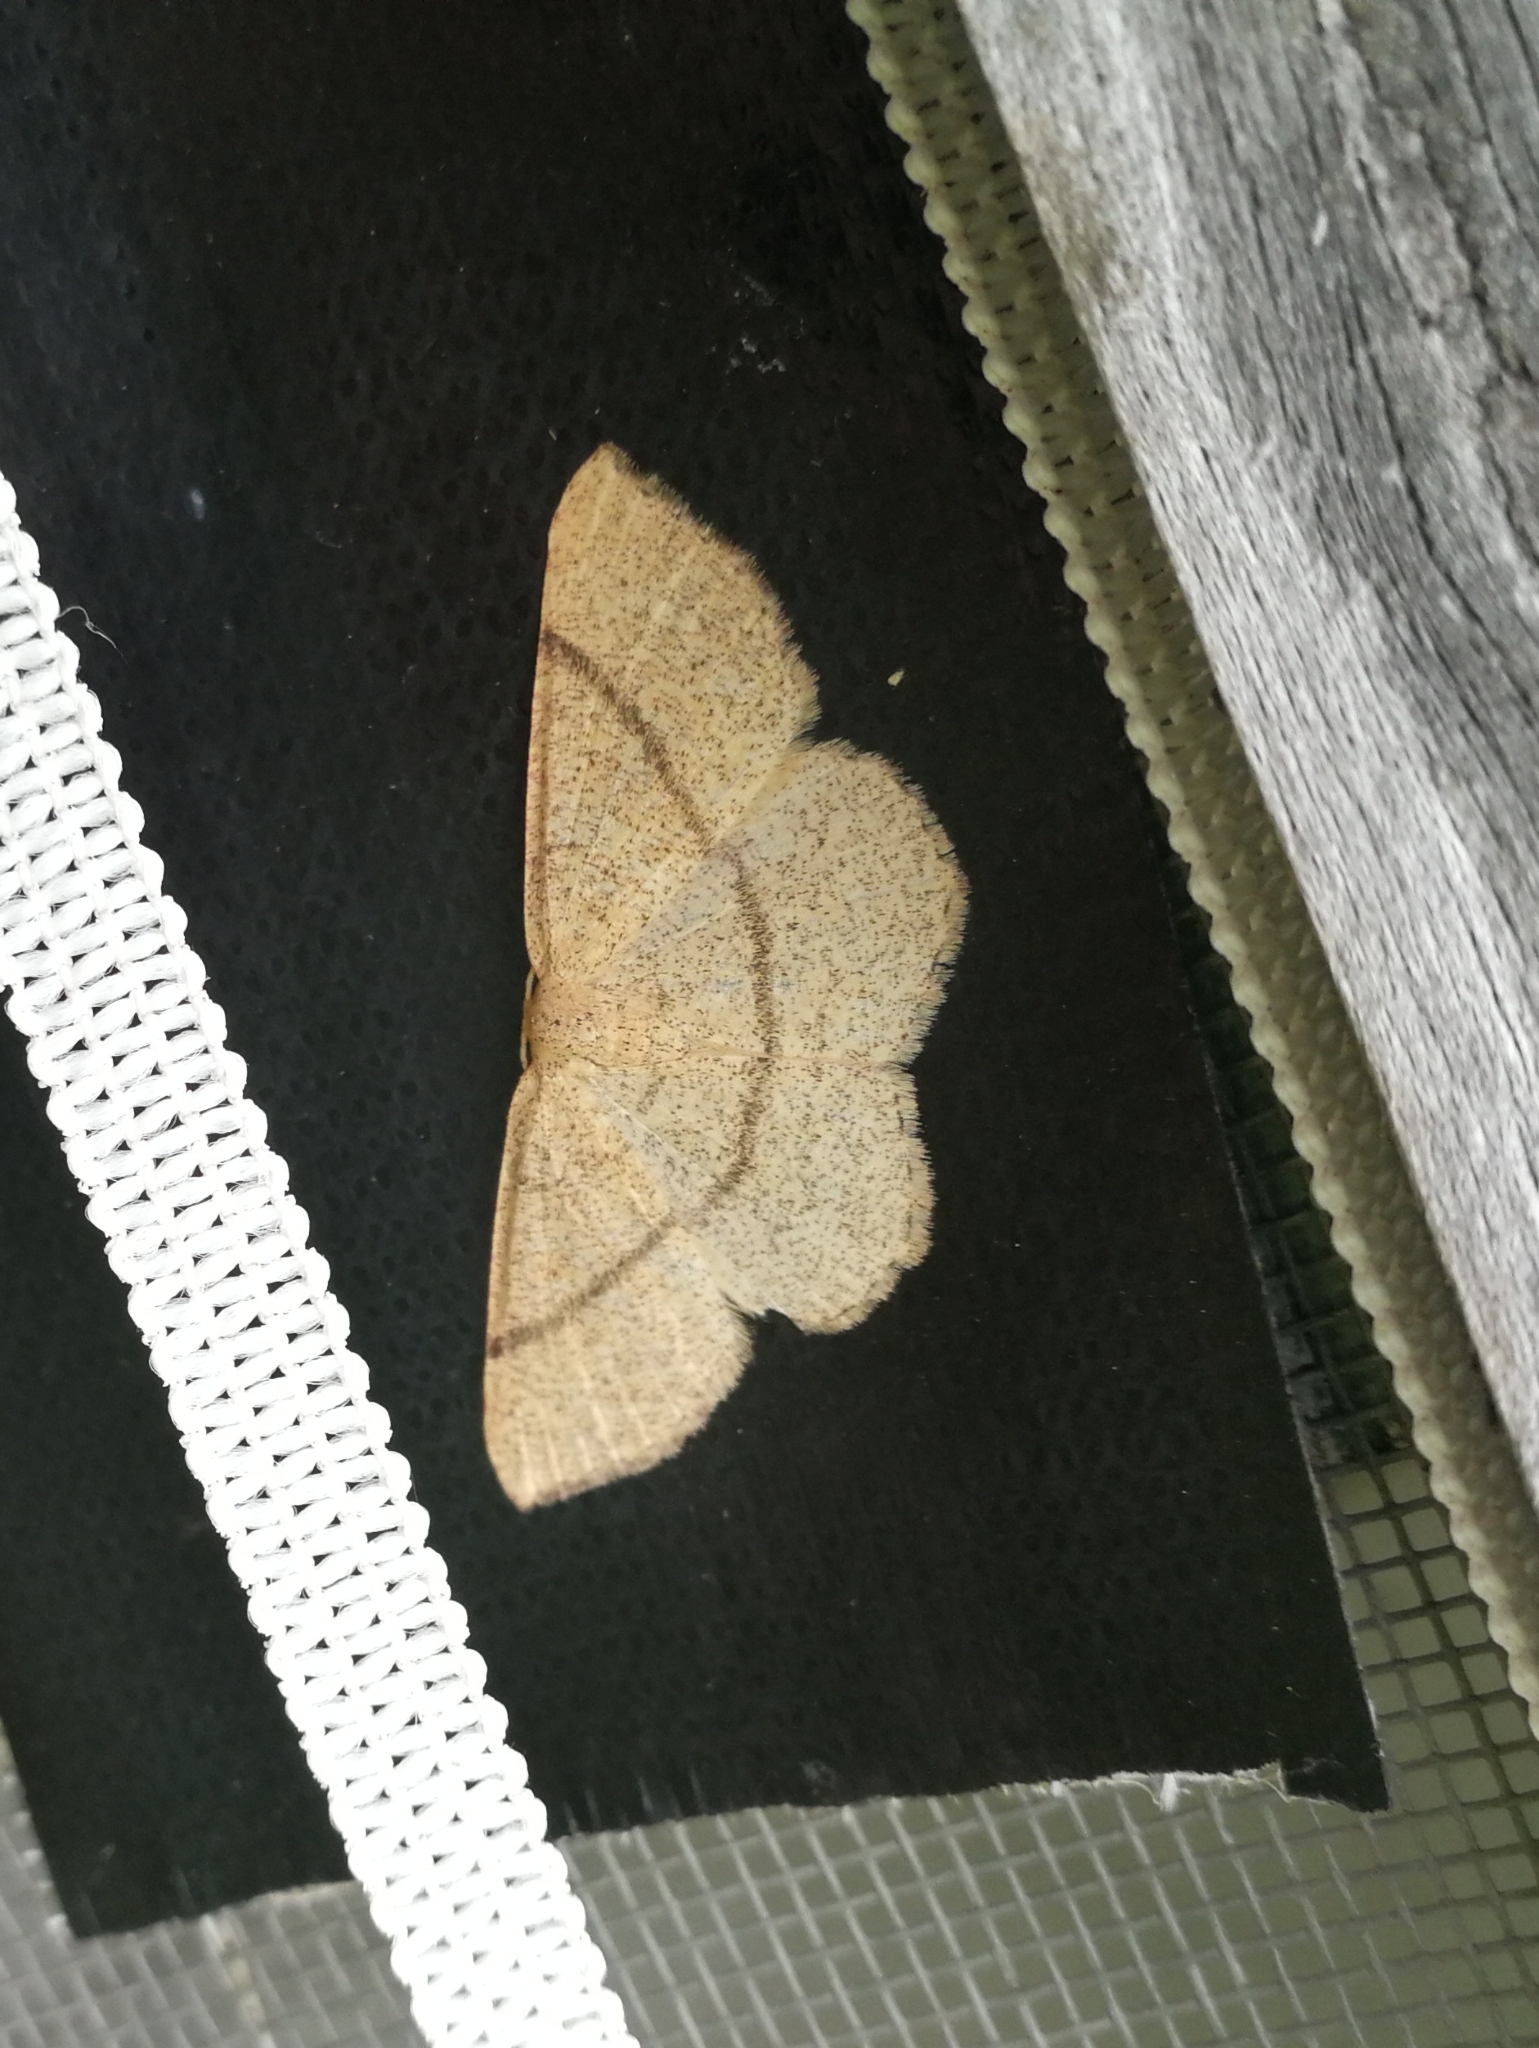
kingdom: Animalia
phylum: Arthropoda
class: Insecta
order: Lepidoptera
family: Geometridae
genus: Cyclophora
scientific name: Cyclophora suppunctaria
